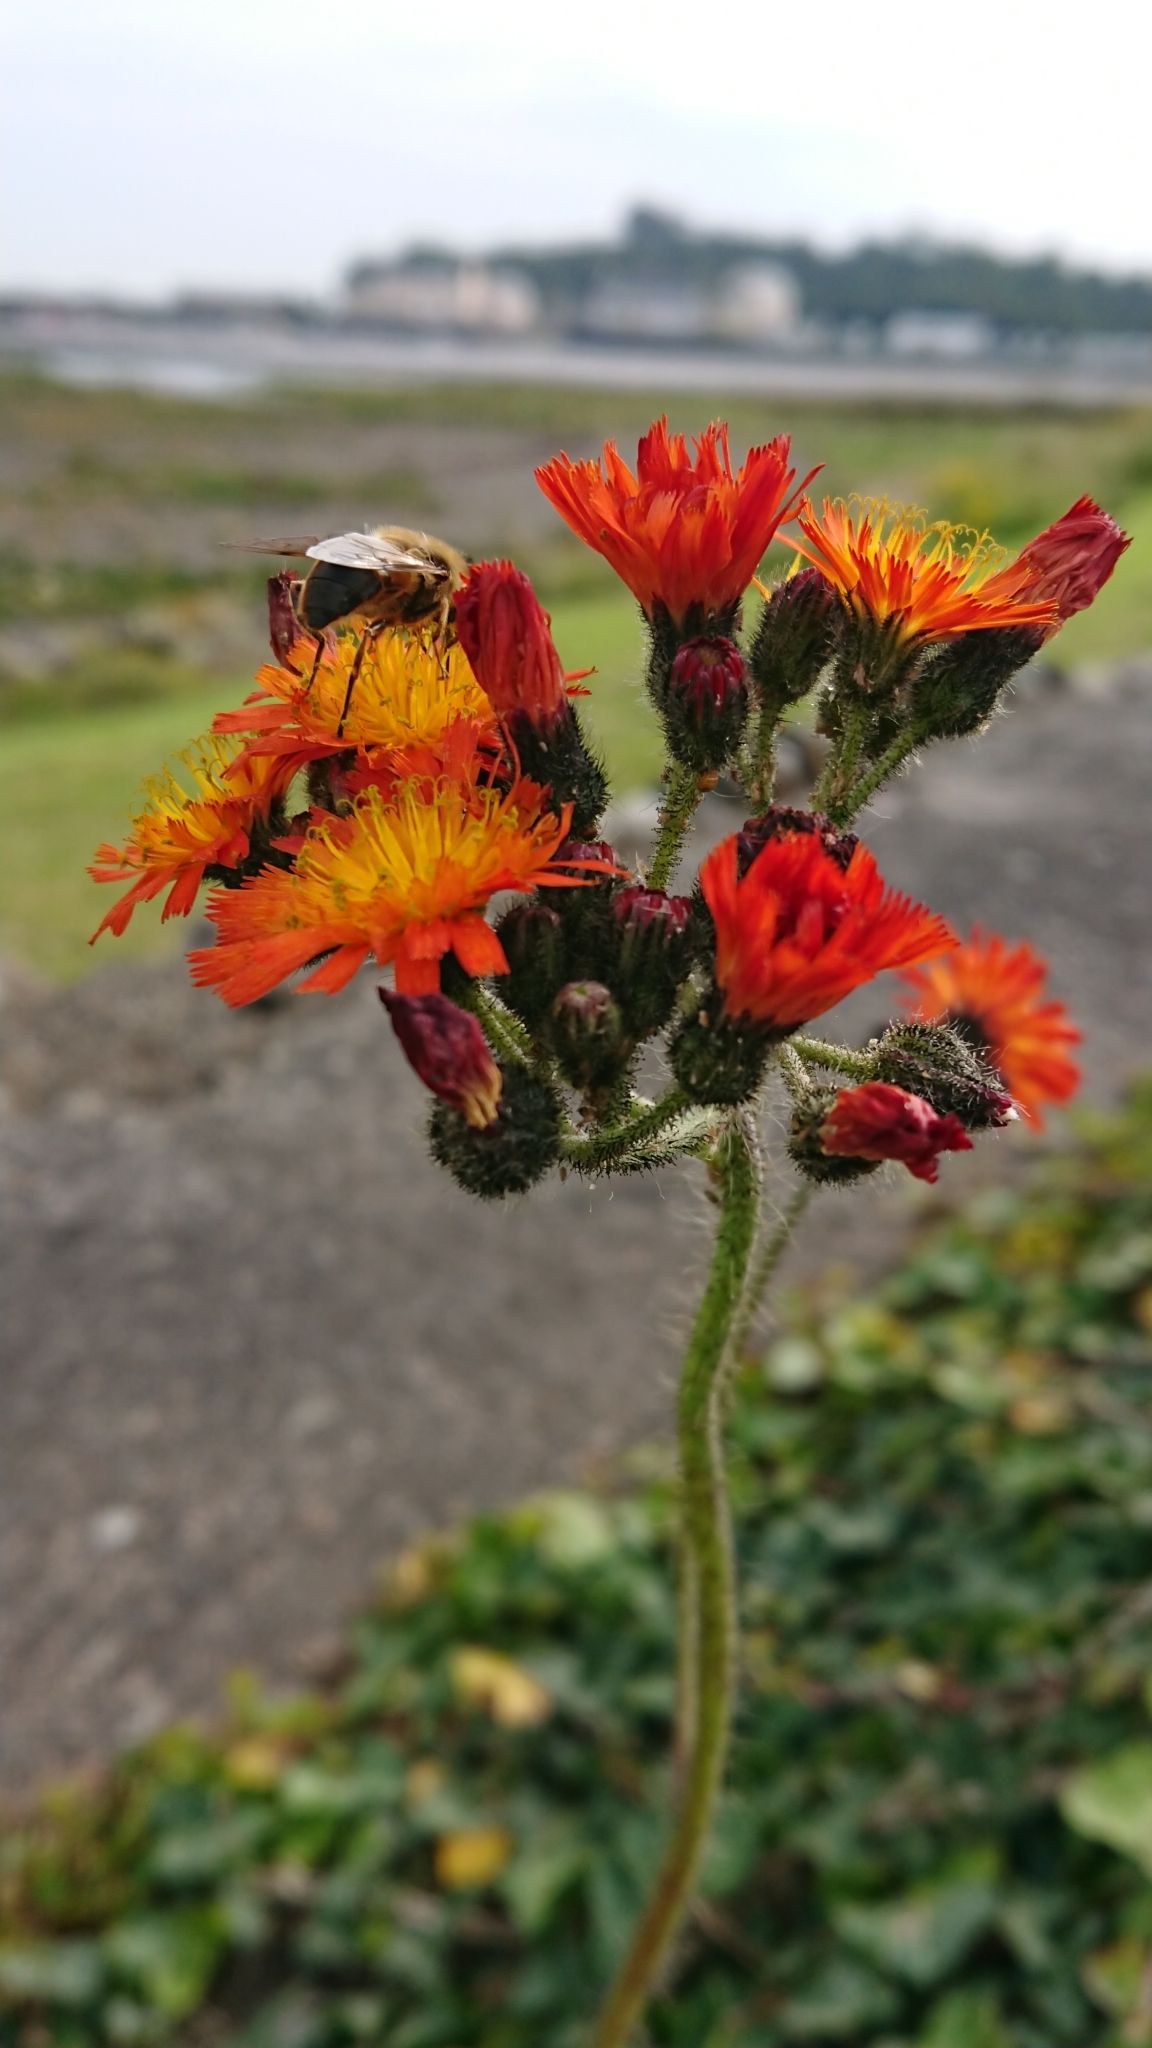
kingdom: Plantae
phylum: Tracheophyta
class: Magnoliopsida
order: Asterales
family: Asteraceae
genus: Pilosella
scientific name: Pilosella aurantiaca
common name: Fox-and-cubs
